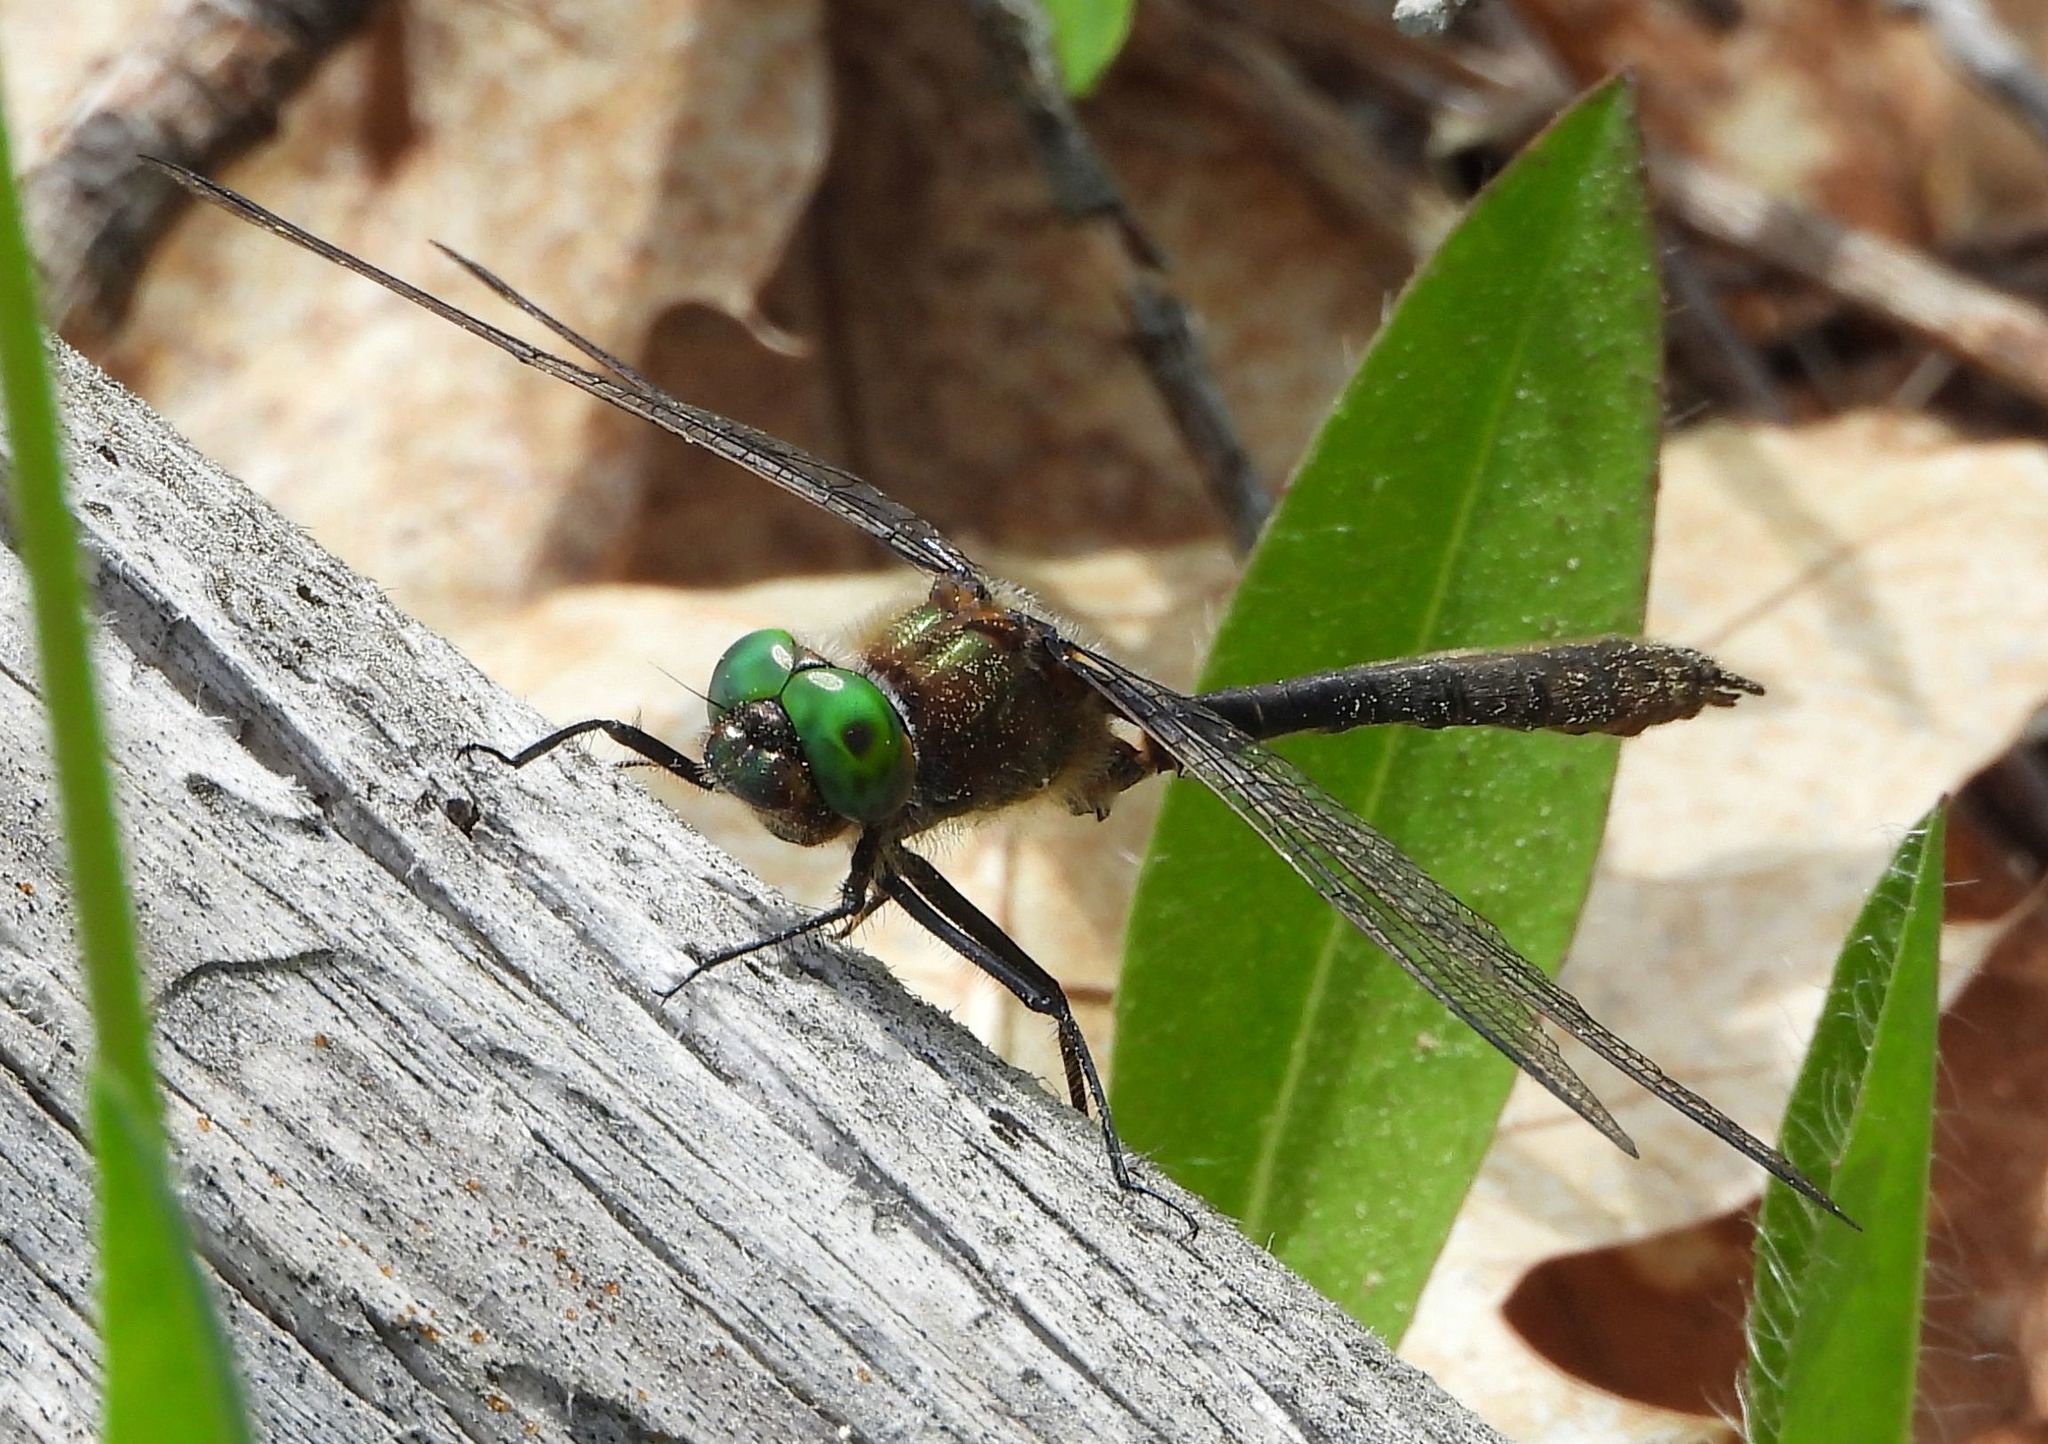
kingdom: Animalia
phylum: Arthropoda
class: Insecta
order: Odonata
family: Corduliidae
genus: Cordulia
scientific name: Cordulia shurtleffii
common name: American emerald
